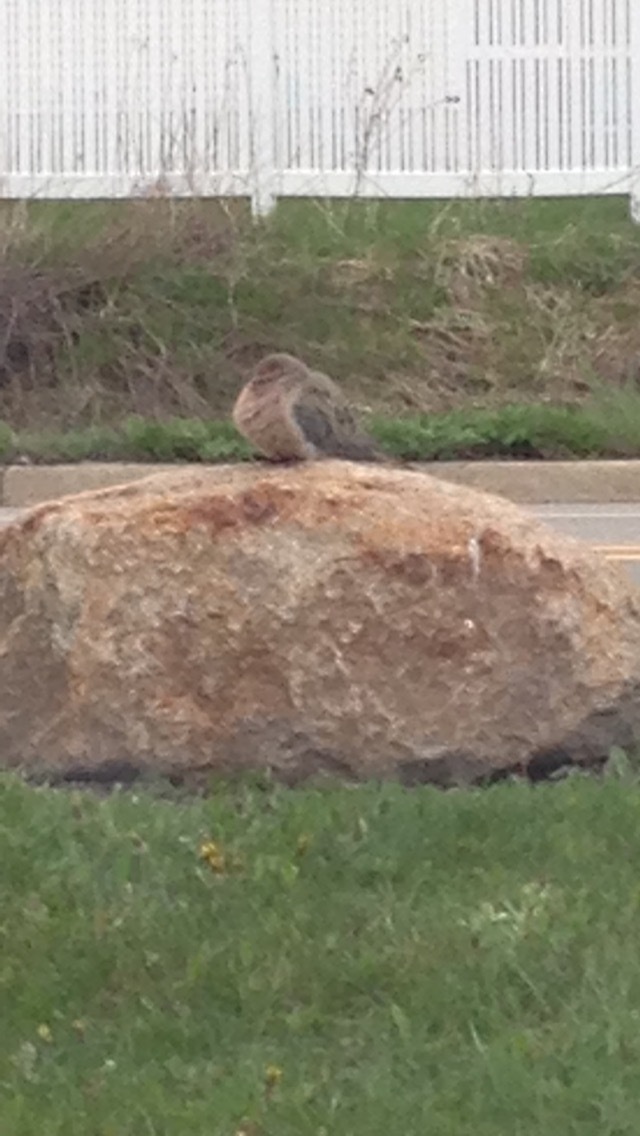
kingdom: Animalia
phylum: Chordata
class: Aves
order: Columbiformes
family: Columbidae
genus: Zenaida
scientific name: Zenaida macroura
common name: Mourning dove
